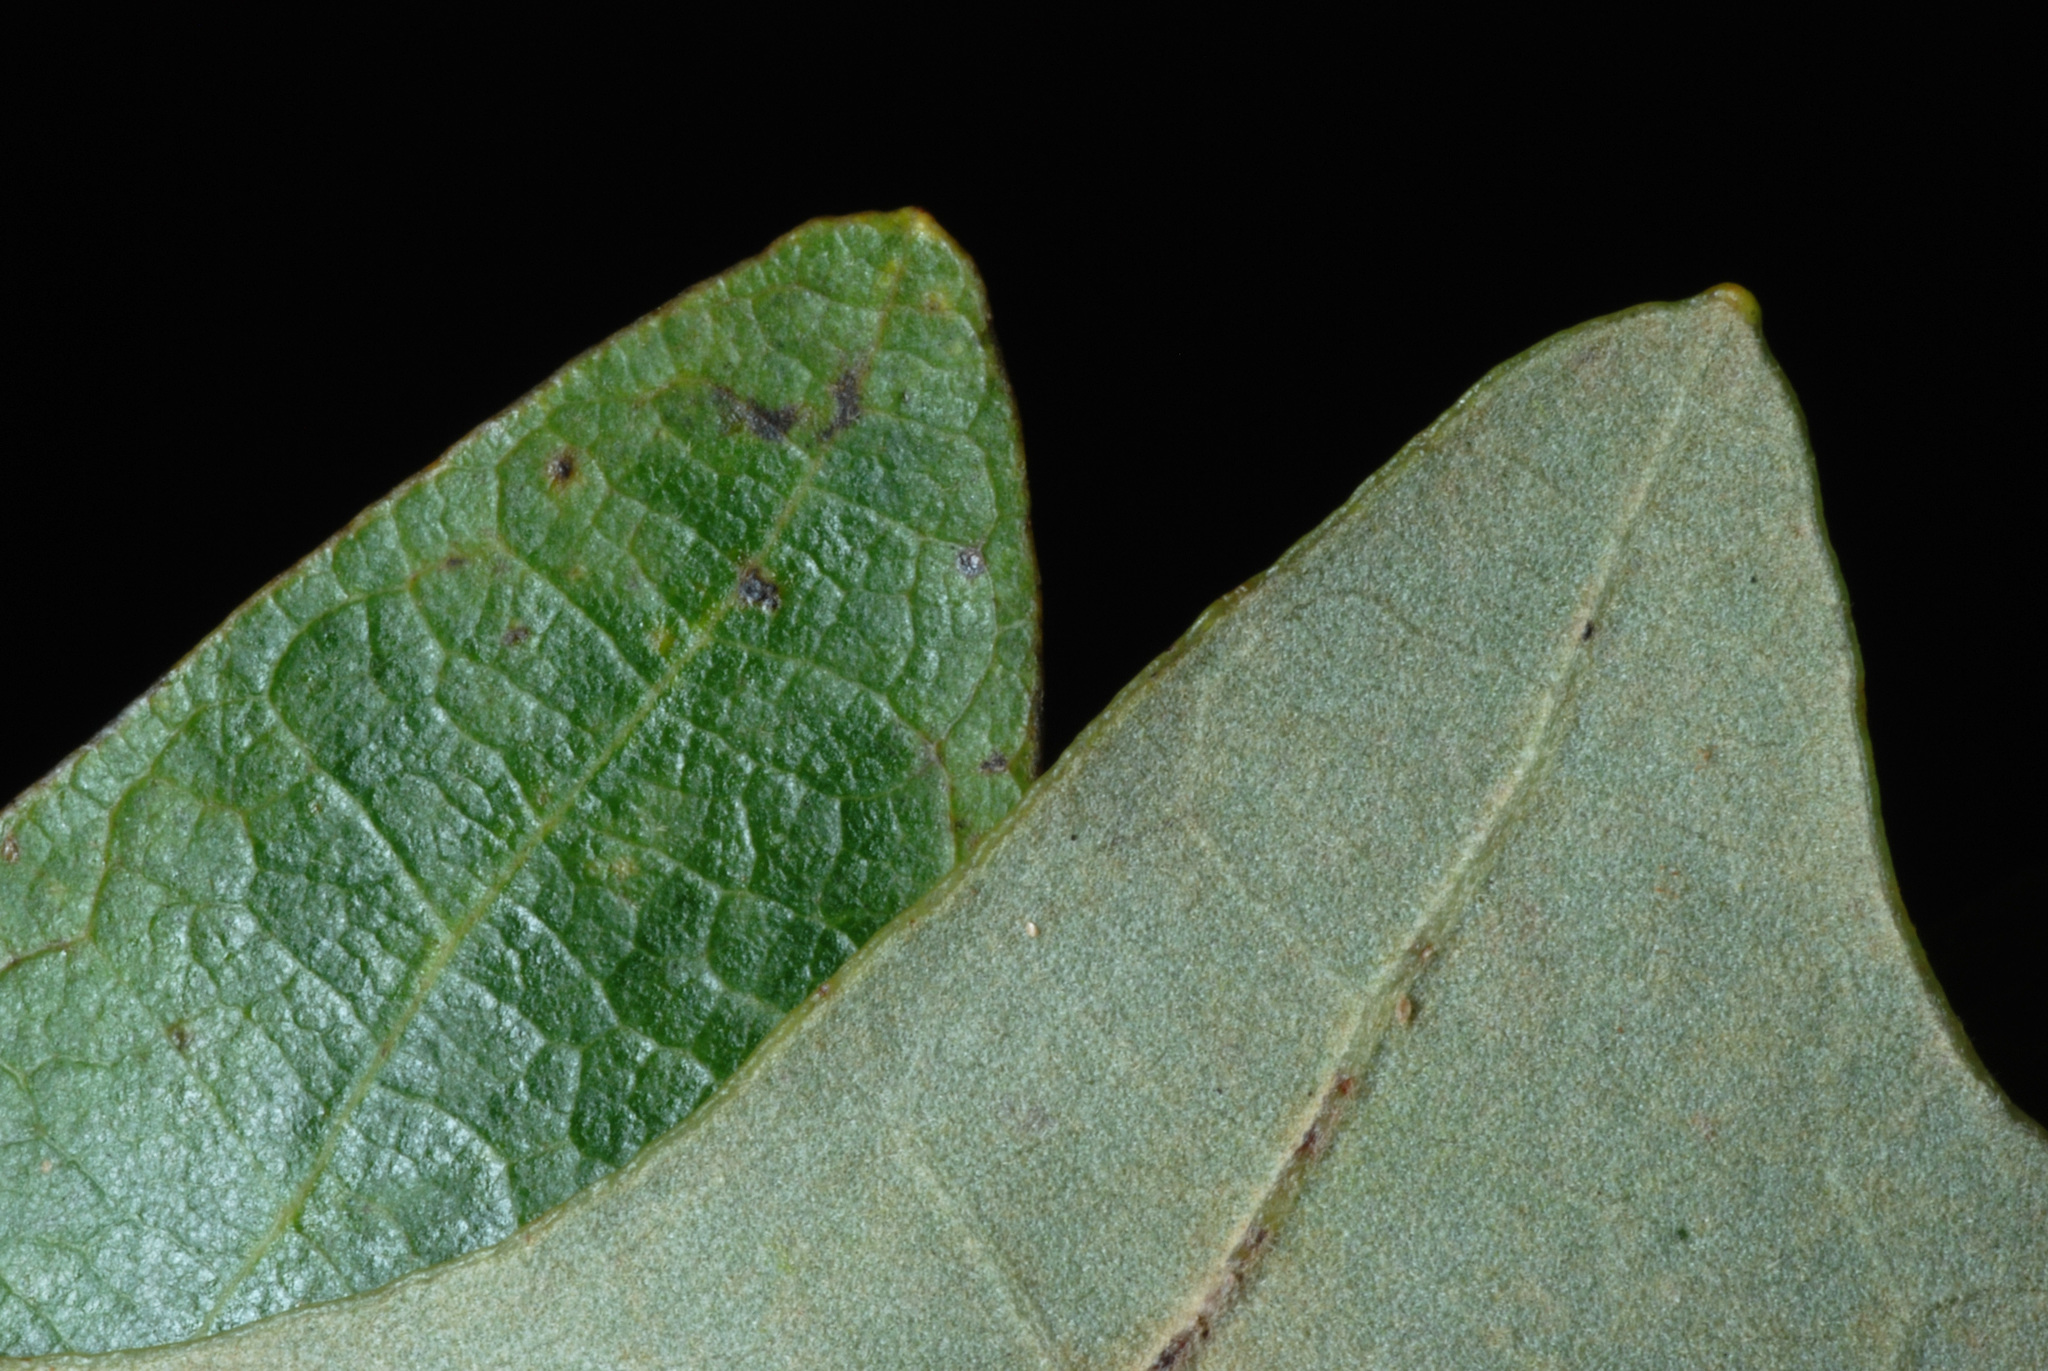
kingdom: Plantae
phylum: Tracheophyta
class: Magnoliopsida
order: Fagales
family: Fagaceae
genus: Quercus
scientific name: Quercus lyrata
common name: Overcup oak
